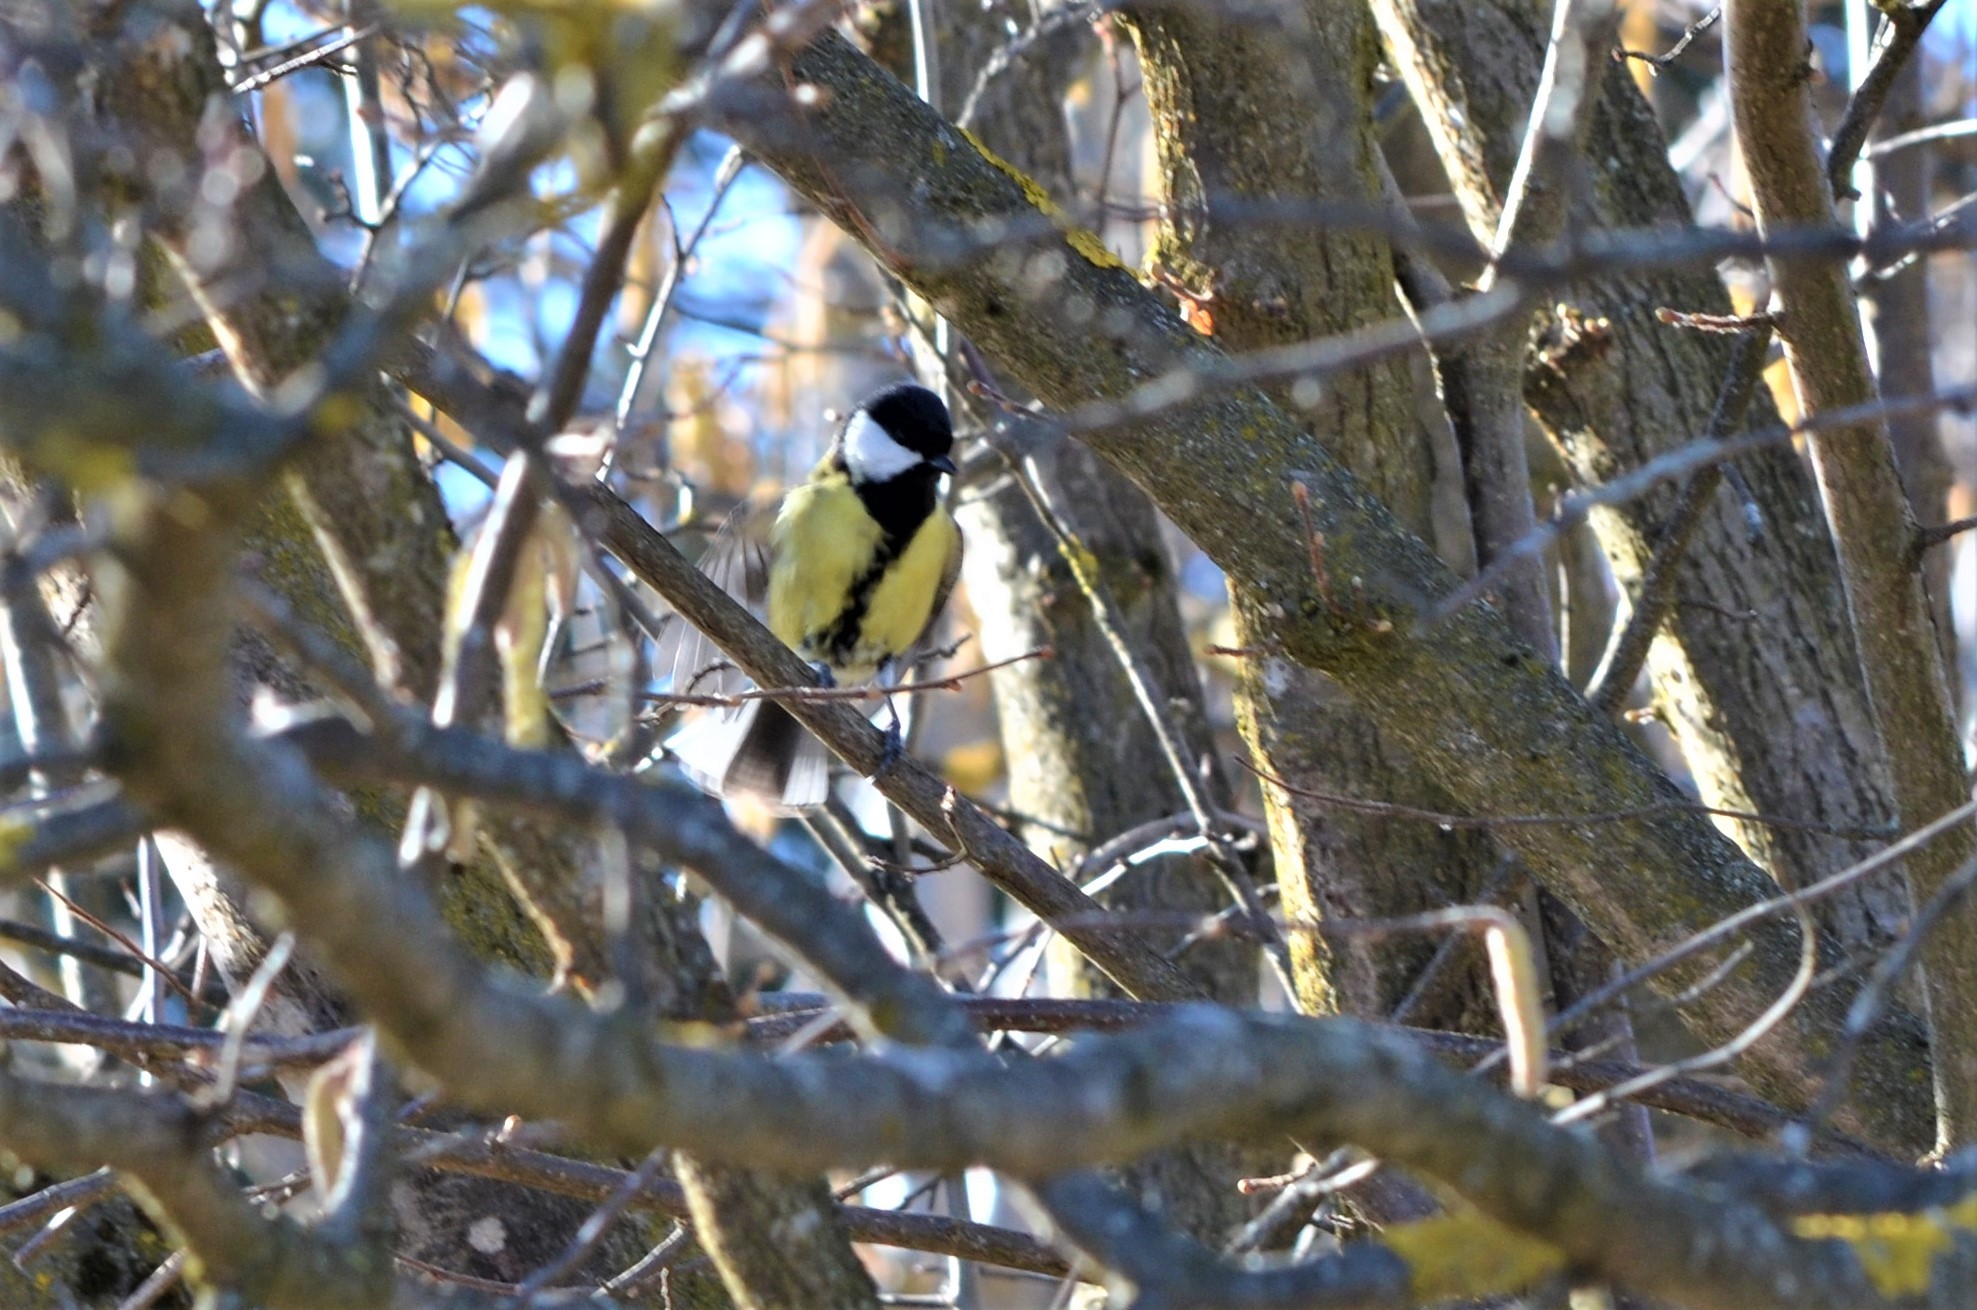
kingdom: Animalia
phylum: Chordata
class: Aves
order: Passeriformes
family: Paridae
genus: Parus
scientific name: Parus major
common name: Great tit
